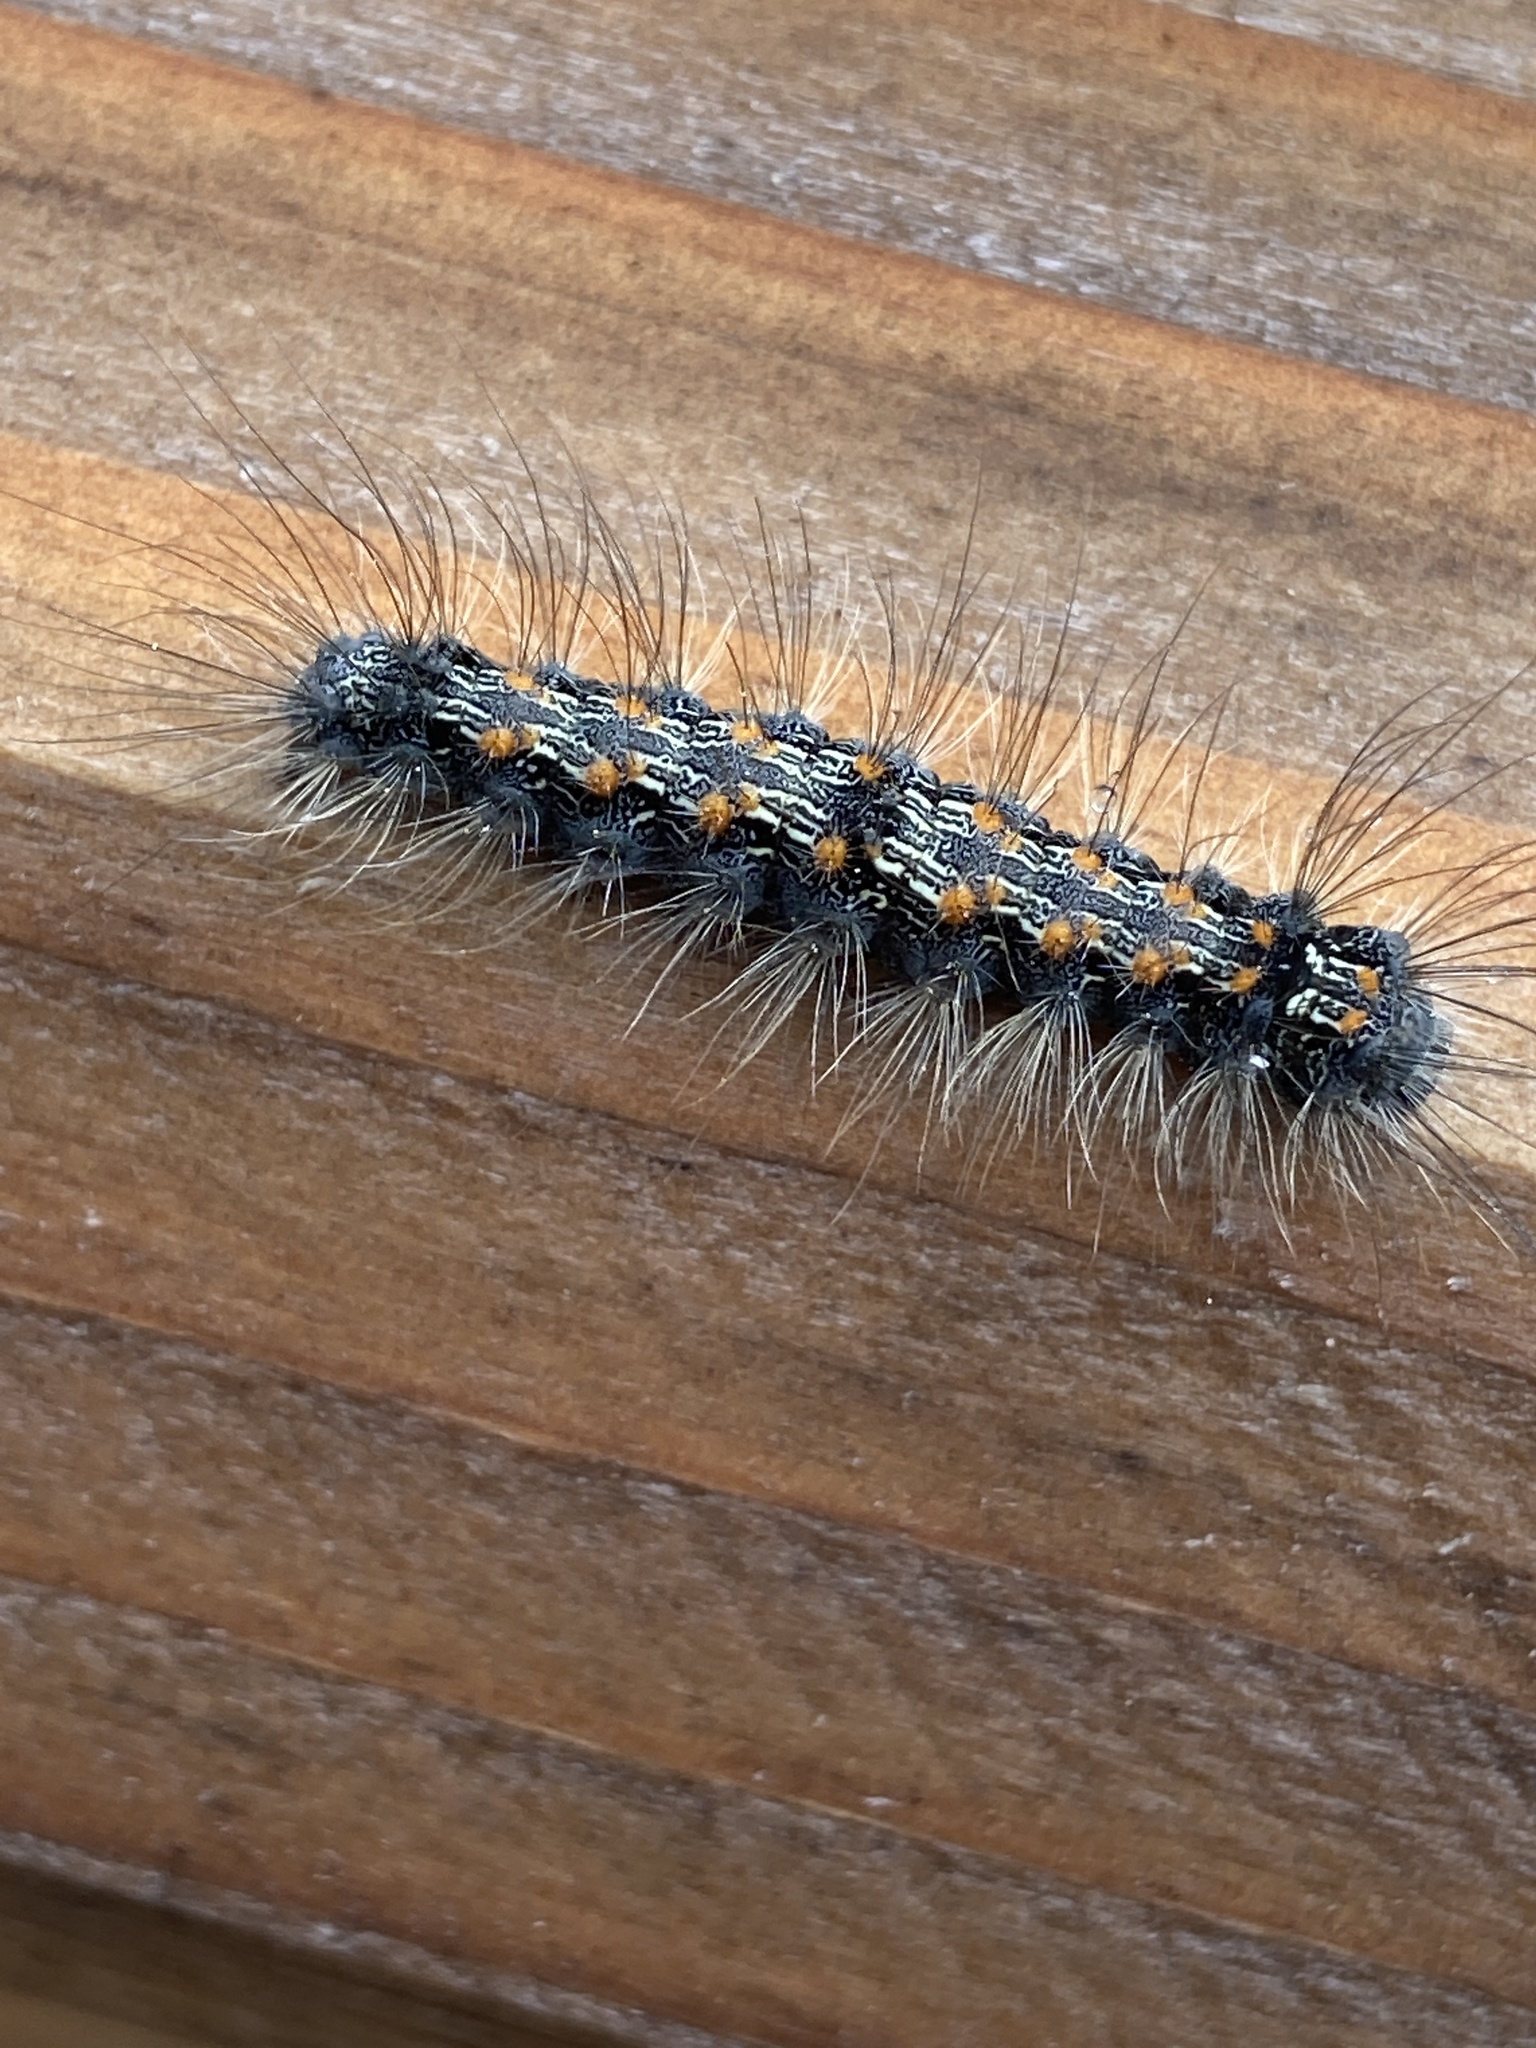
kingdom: Animalia
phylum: Arthropoda
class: Insecta
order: Lepidoptera
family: Erebidae
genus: Lithosia
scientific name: Lithosia quadra
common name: Four-spotted footman
